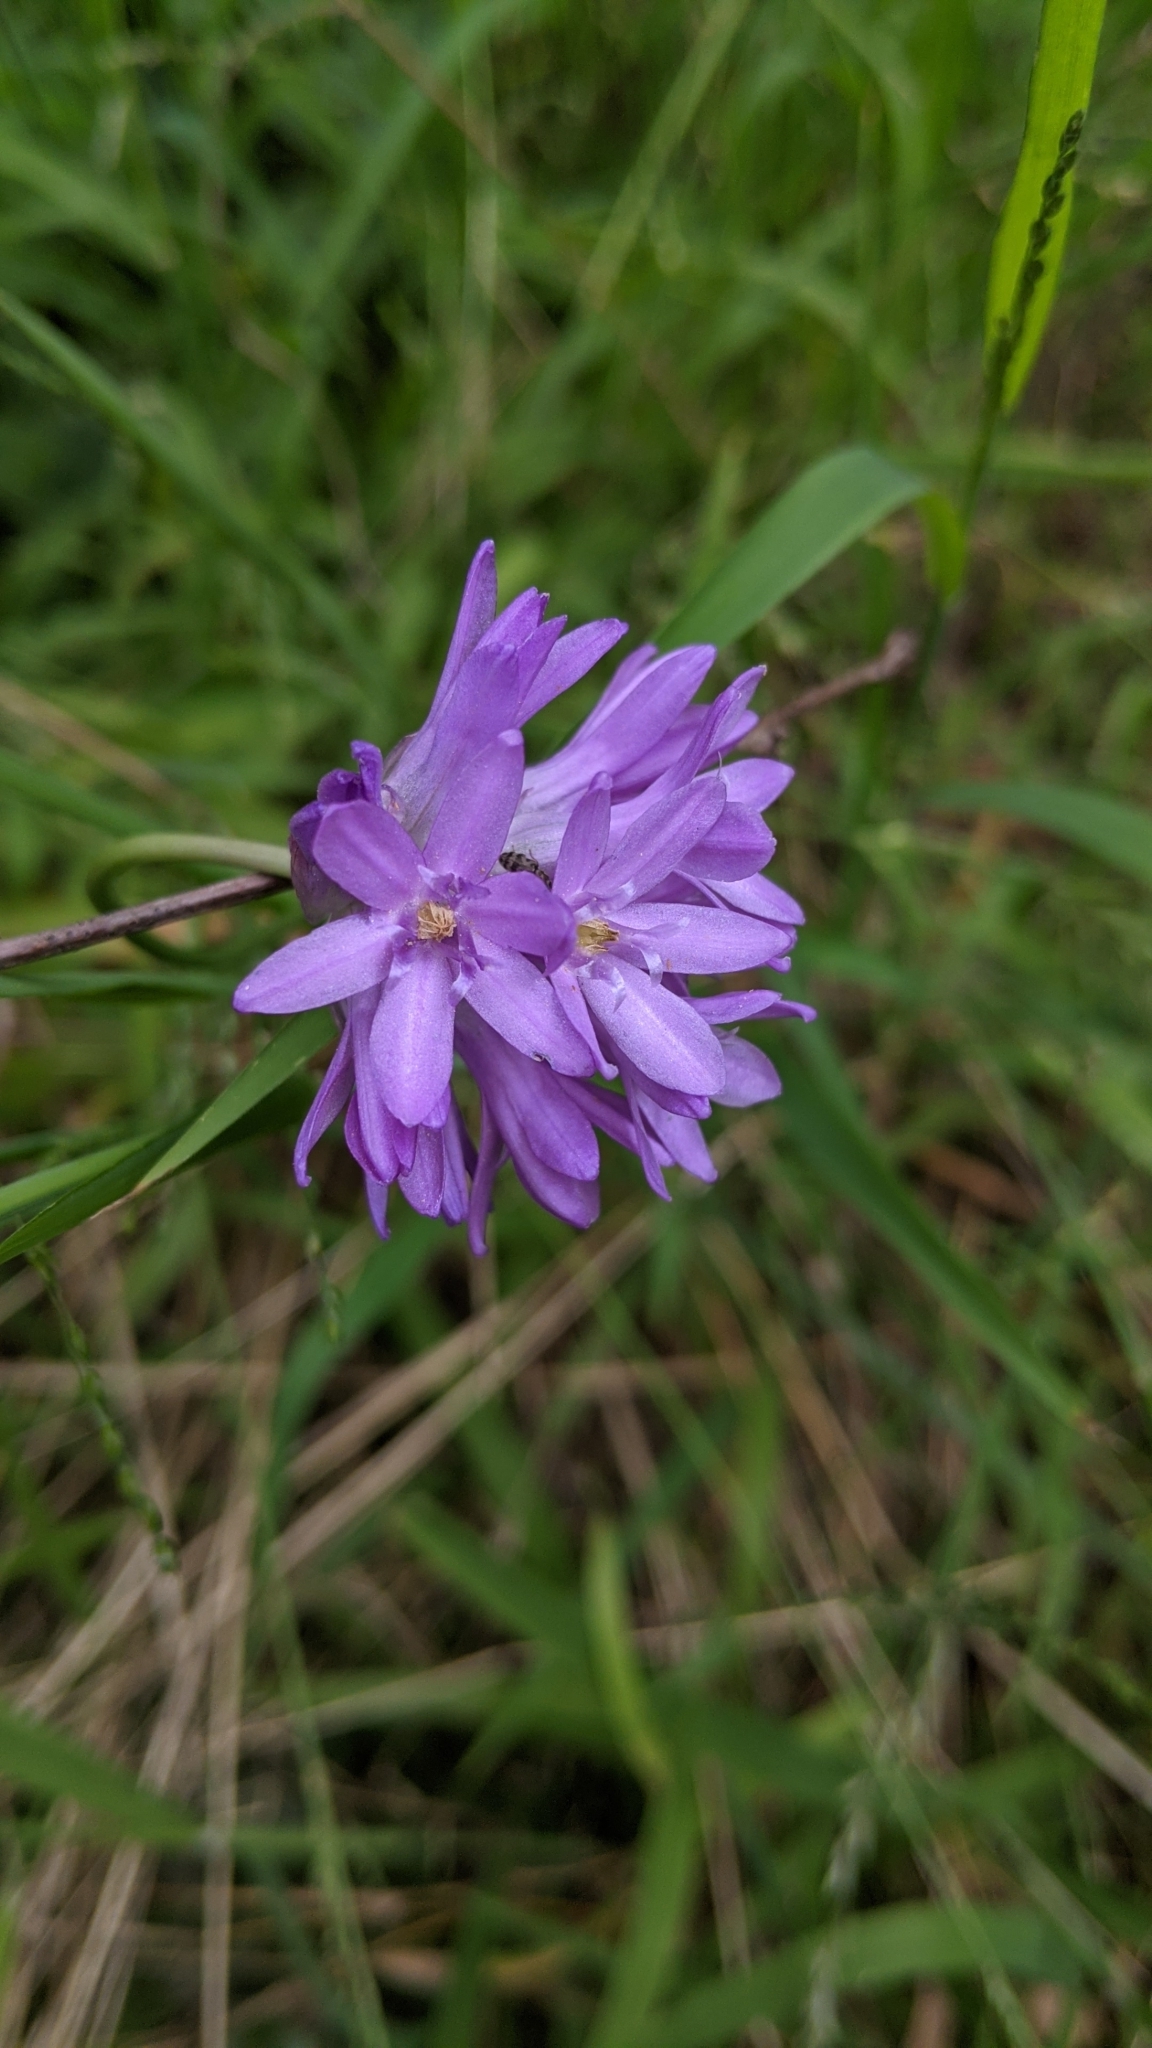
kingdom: Plantae
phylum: Tracheophyta
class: Liliopsida
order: Asparagales
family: Asparagaceae
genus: Dichelostemma
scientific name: Dichelostemma congestum
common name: Fork-tooth ookow
